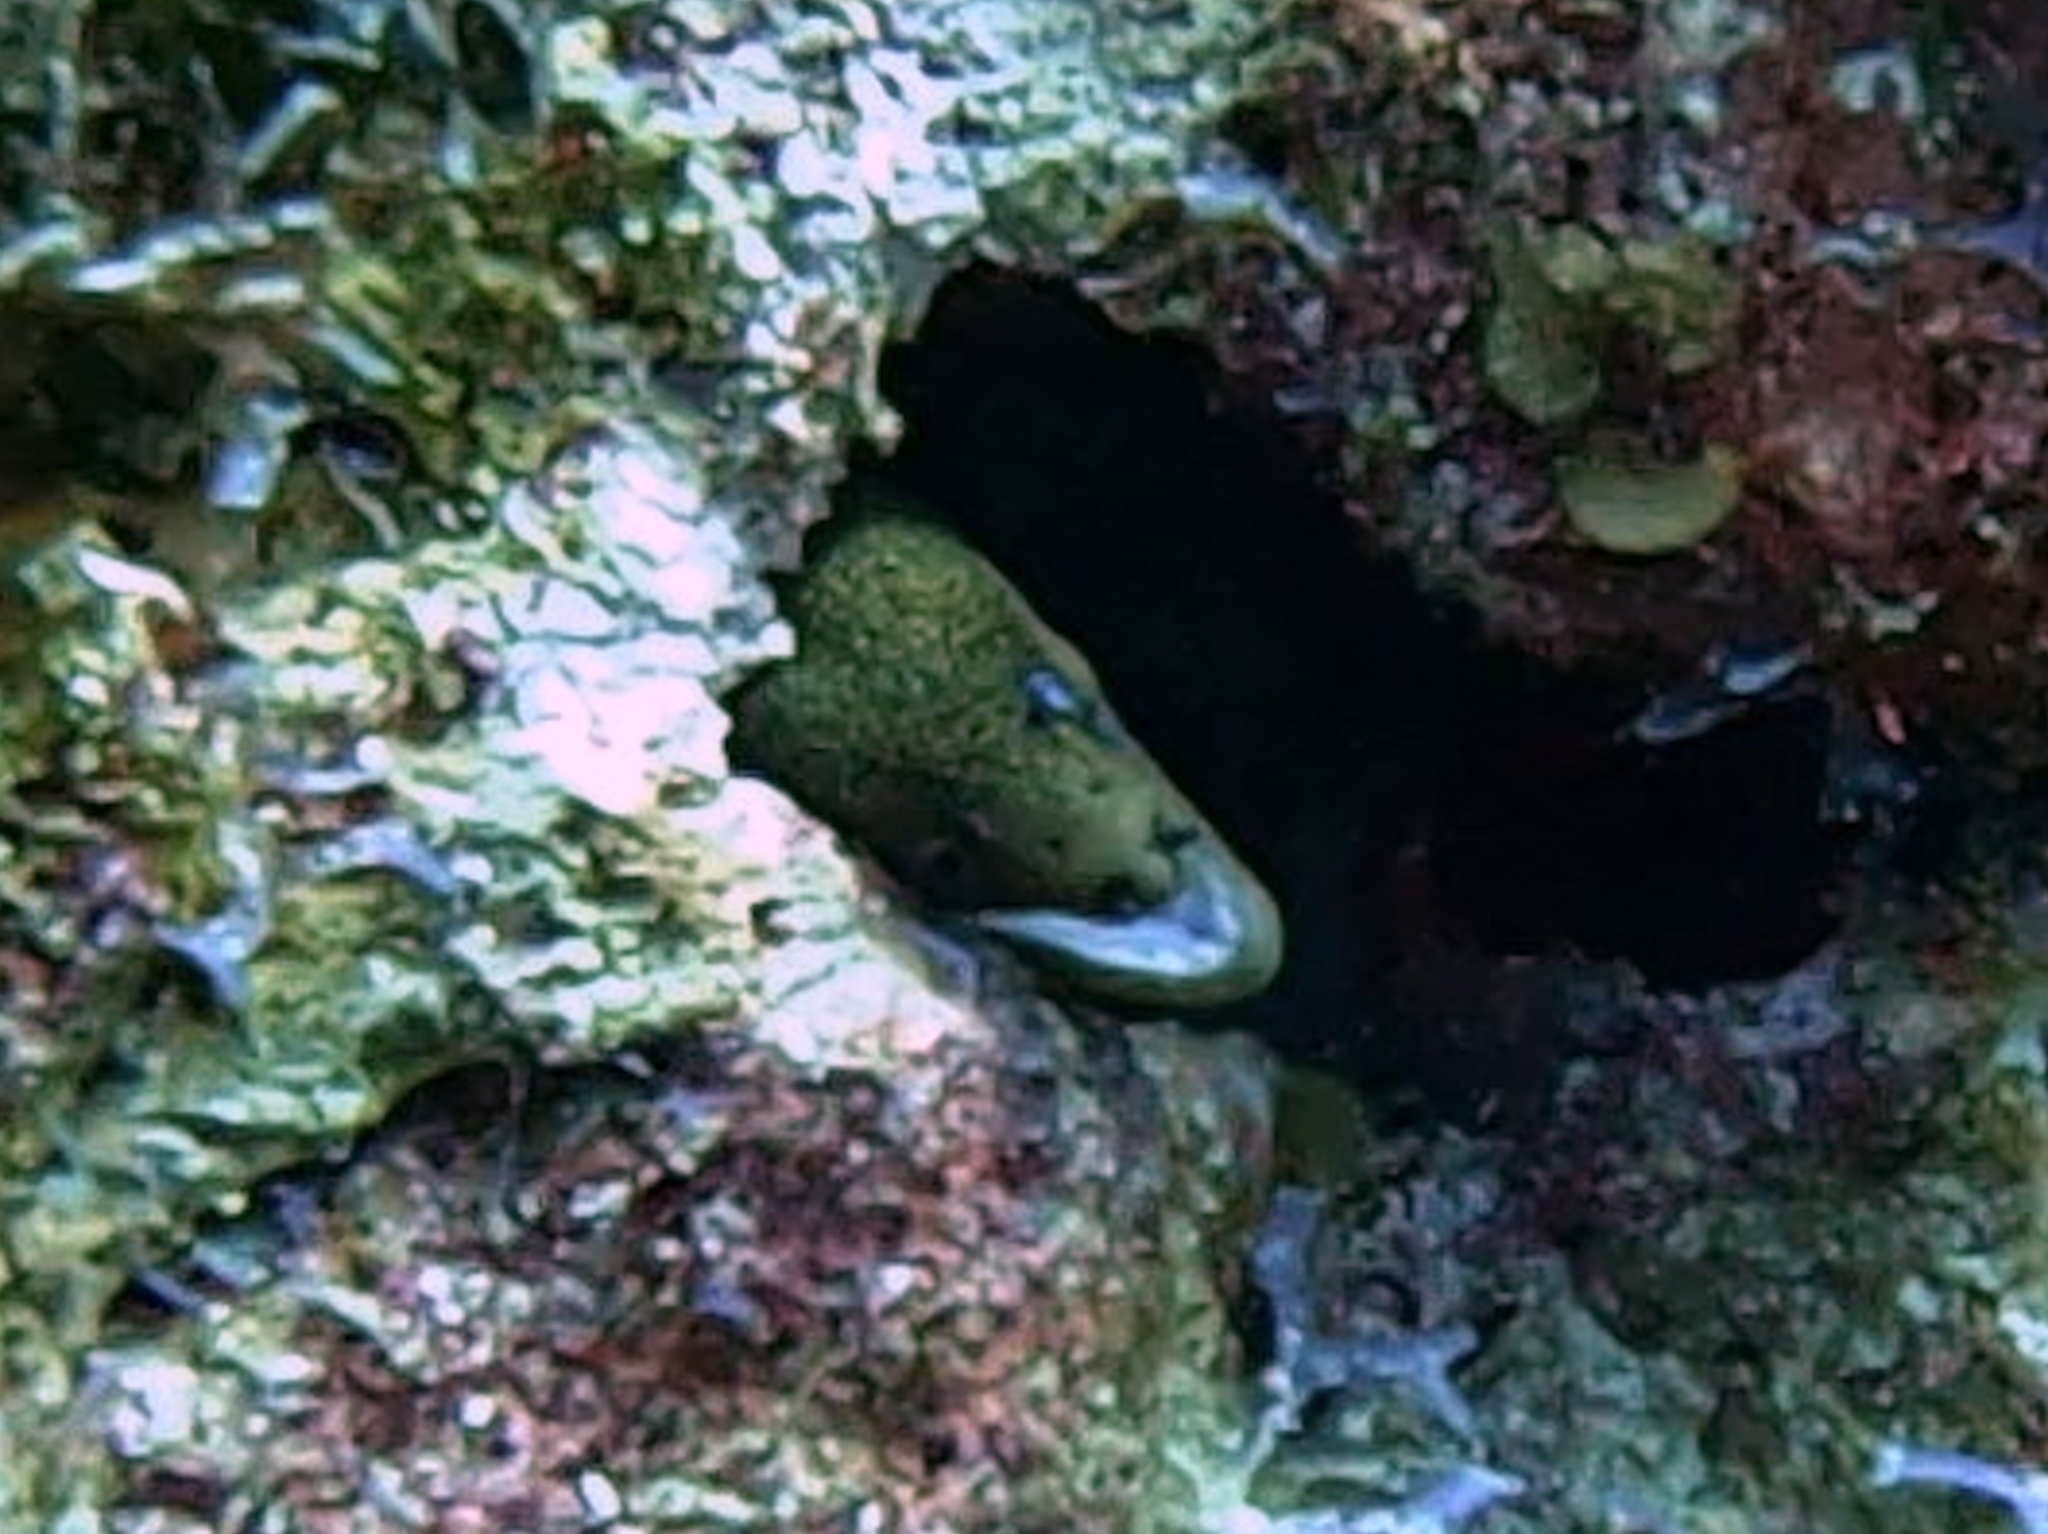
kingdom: Animalia
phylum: Chordata
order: Anguilliformes
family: Muraenidae
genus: Gymnothorax
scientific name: Gymnothorax miliaris
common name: Goldentail moray
